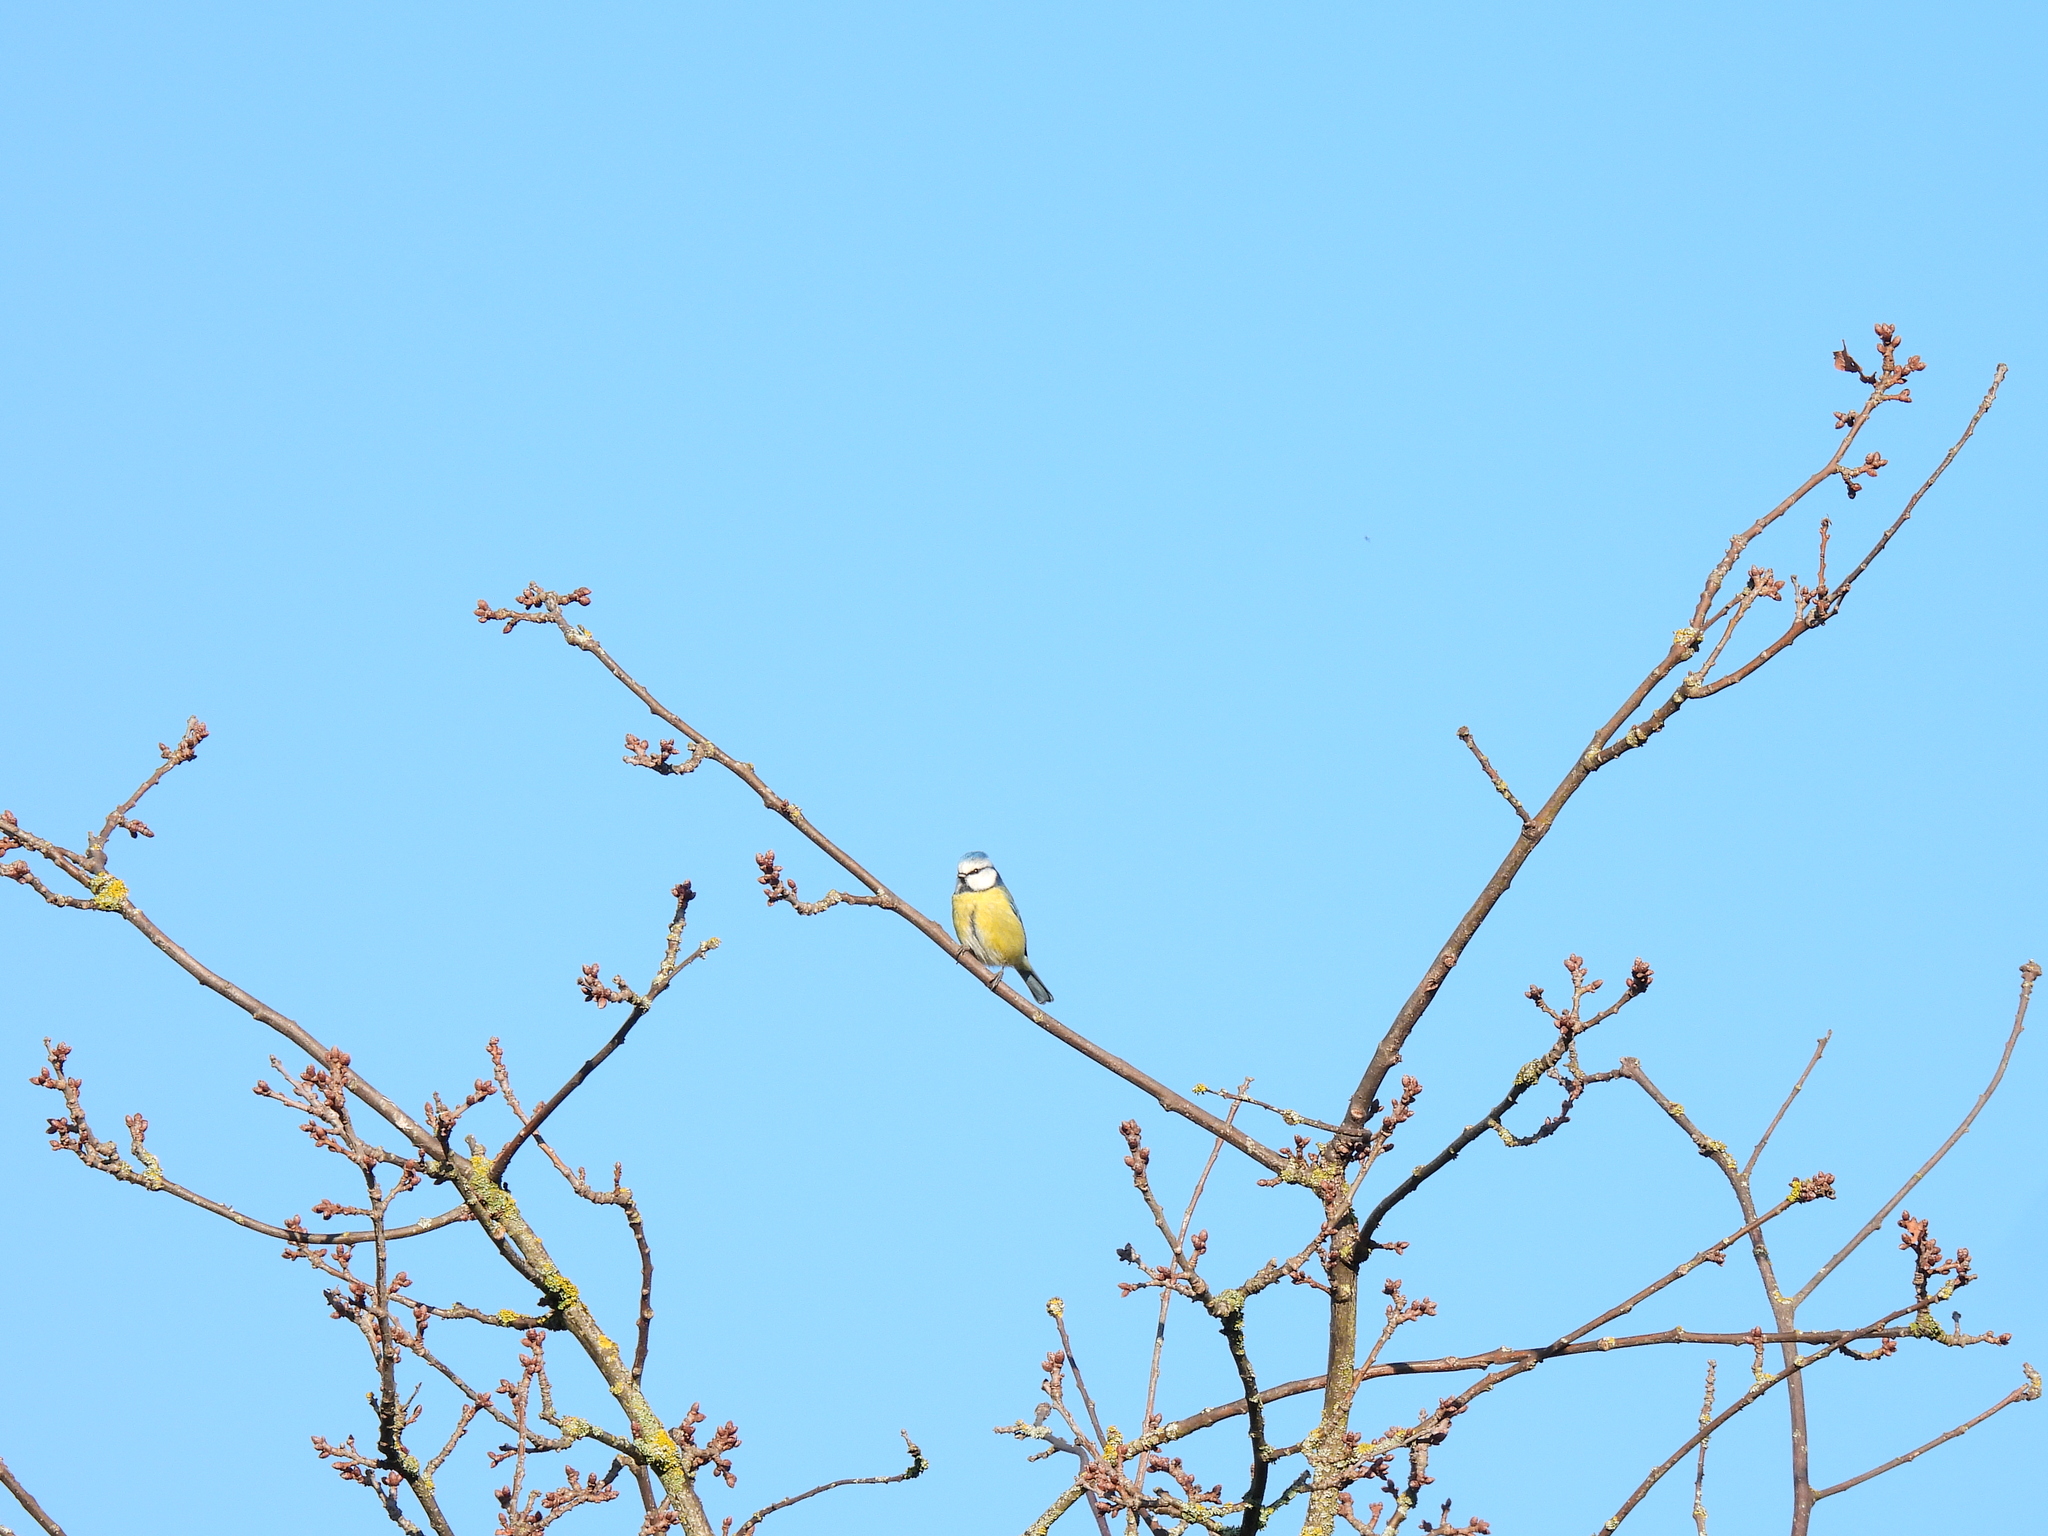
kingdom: Animalia
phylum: Chordata
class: Aves
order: Passeriformes
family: Paridae
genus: Cyanistes
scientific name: Cyanistes caeruleus
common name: Eurasian blue tit
